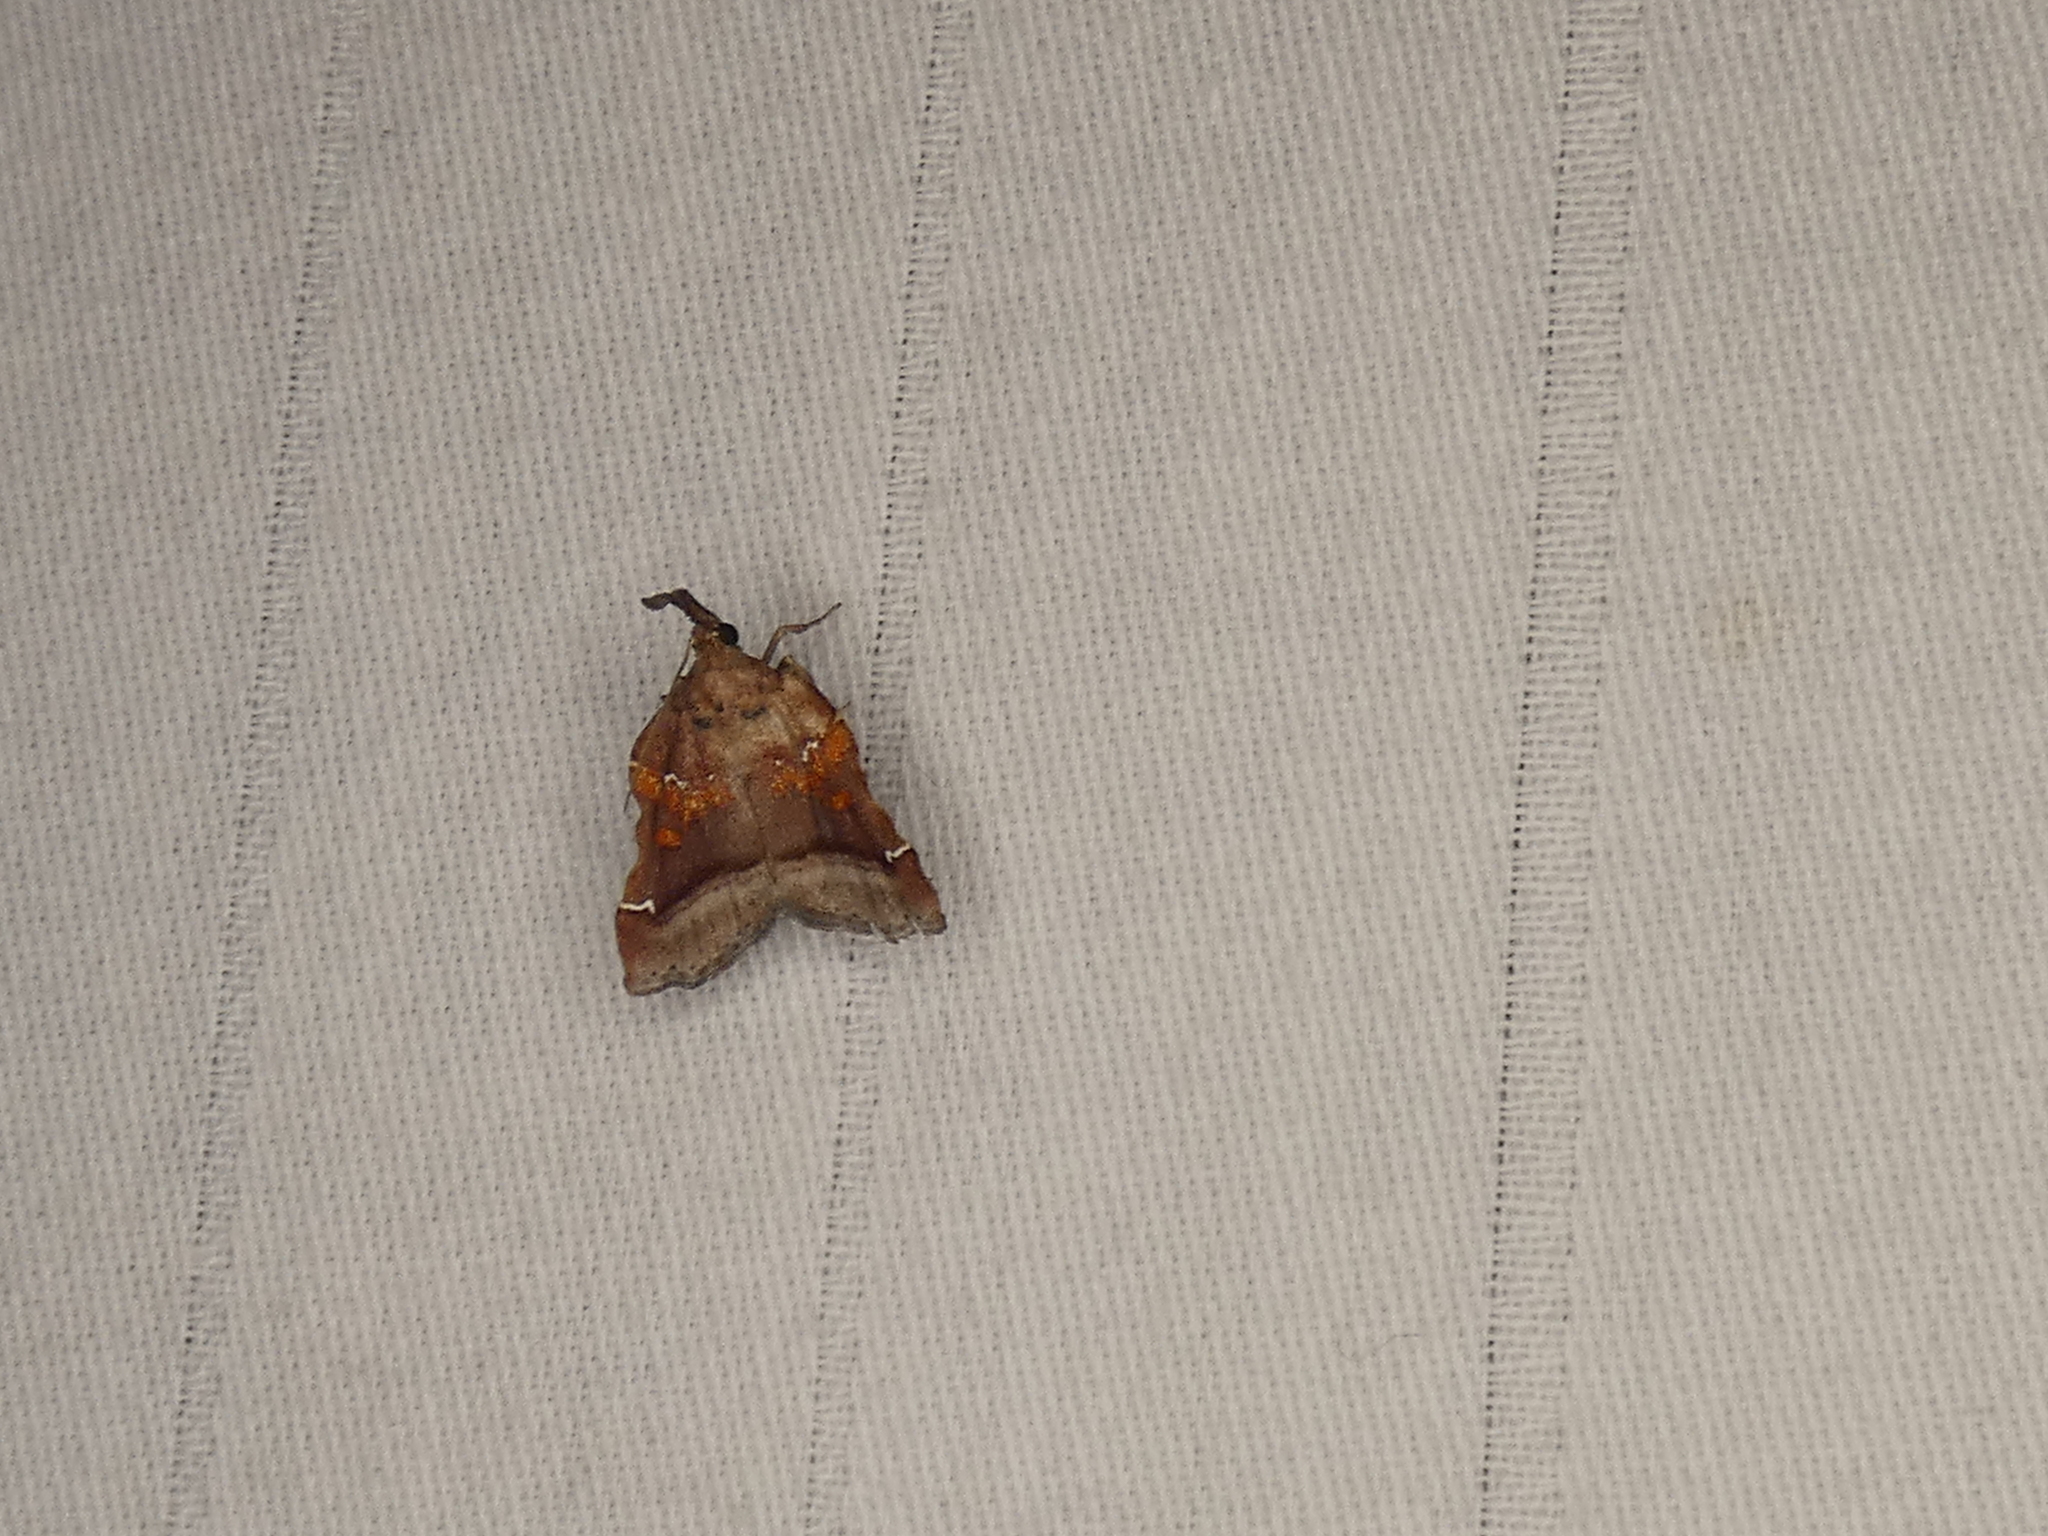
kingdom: Animalia
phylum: Arthropoda
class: Insecta
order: Lepidoptera
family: Pyralidae
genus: Clydonopteron
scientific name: Clydonopteron sacculana
